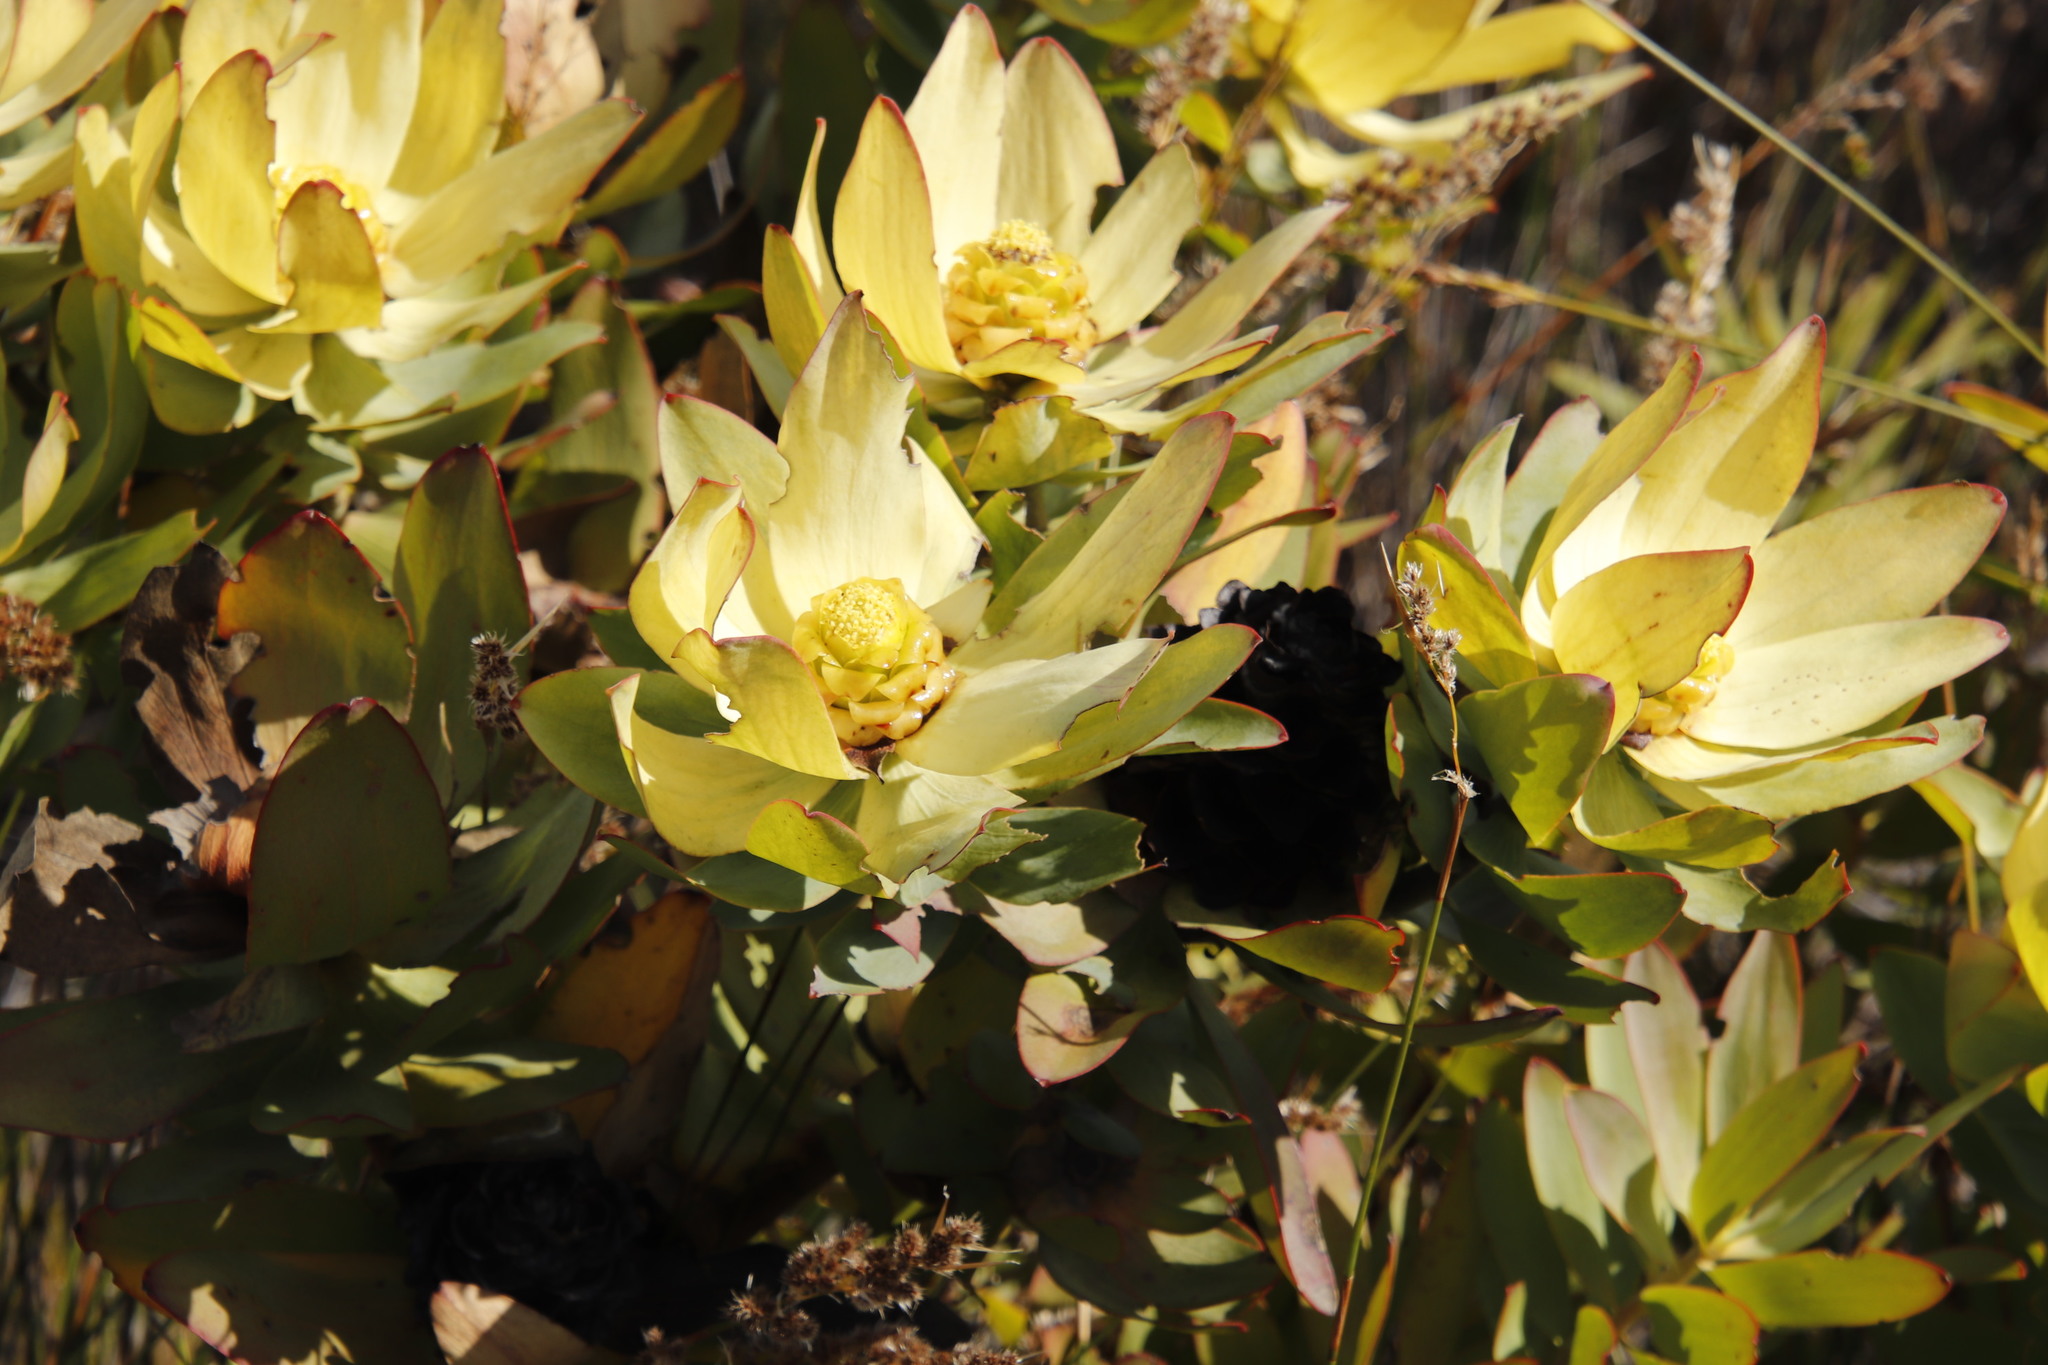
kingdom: Plantae
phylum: Tracheophyta
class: Magnoliopsida
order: Proteales
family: Proteaceae
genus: Leucadendron
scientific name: Leucadendron tinctum
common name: Spicy conebush
